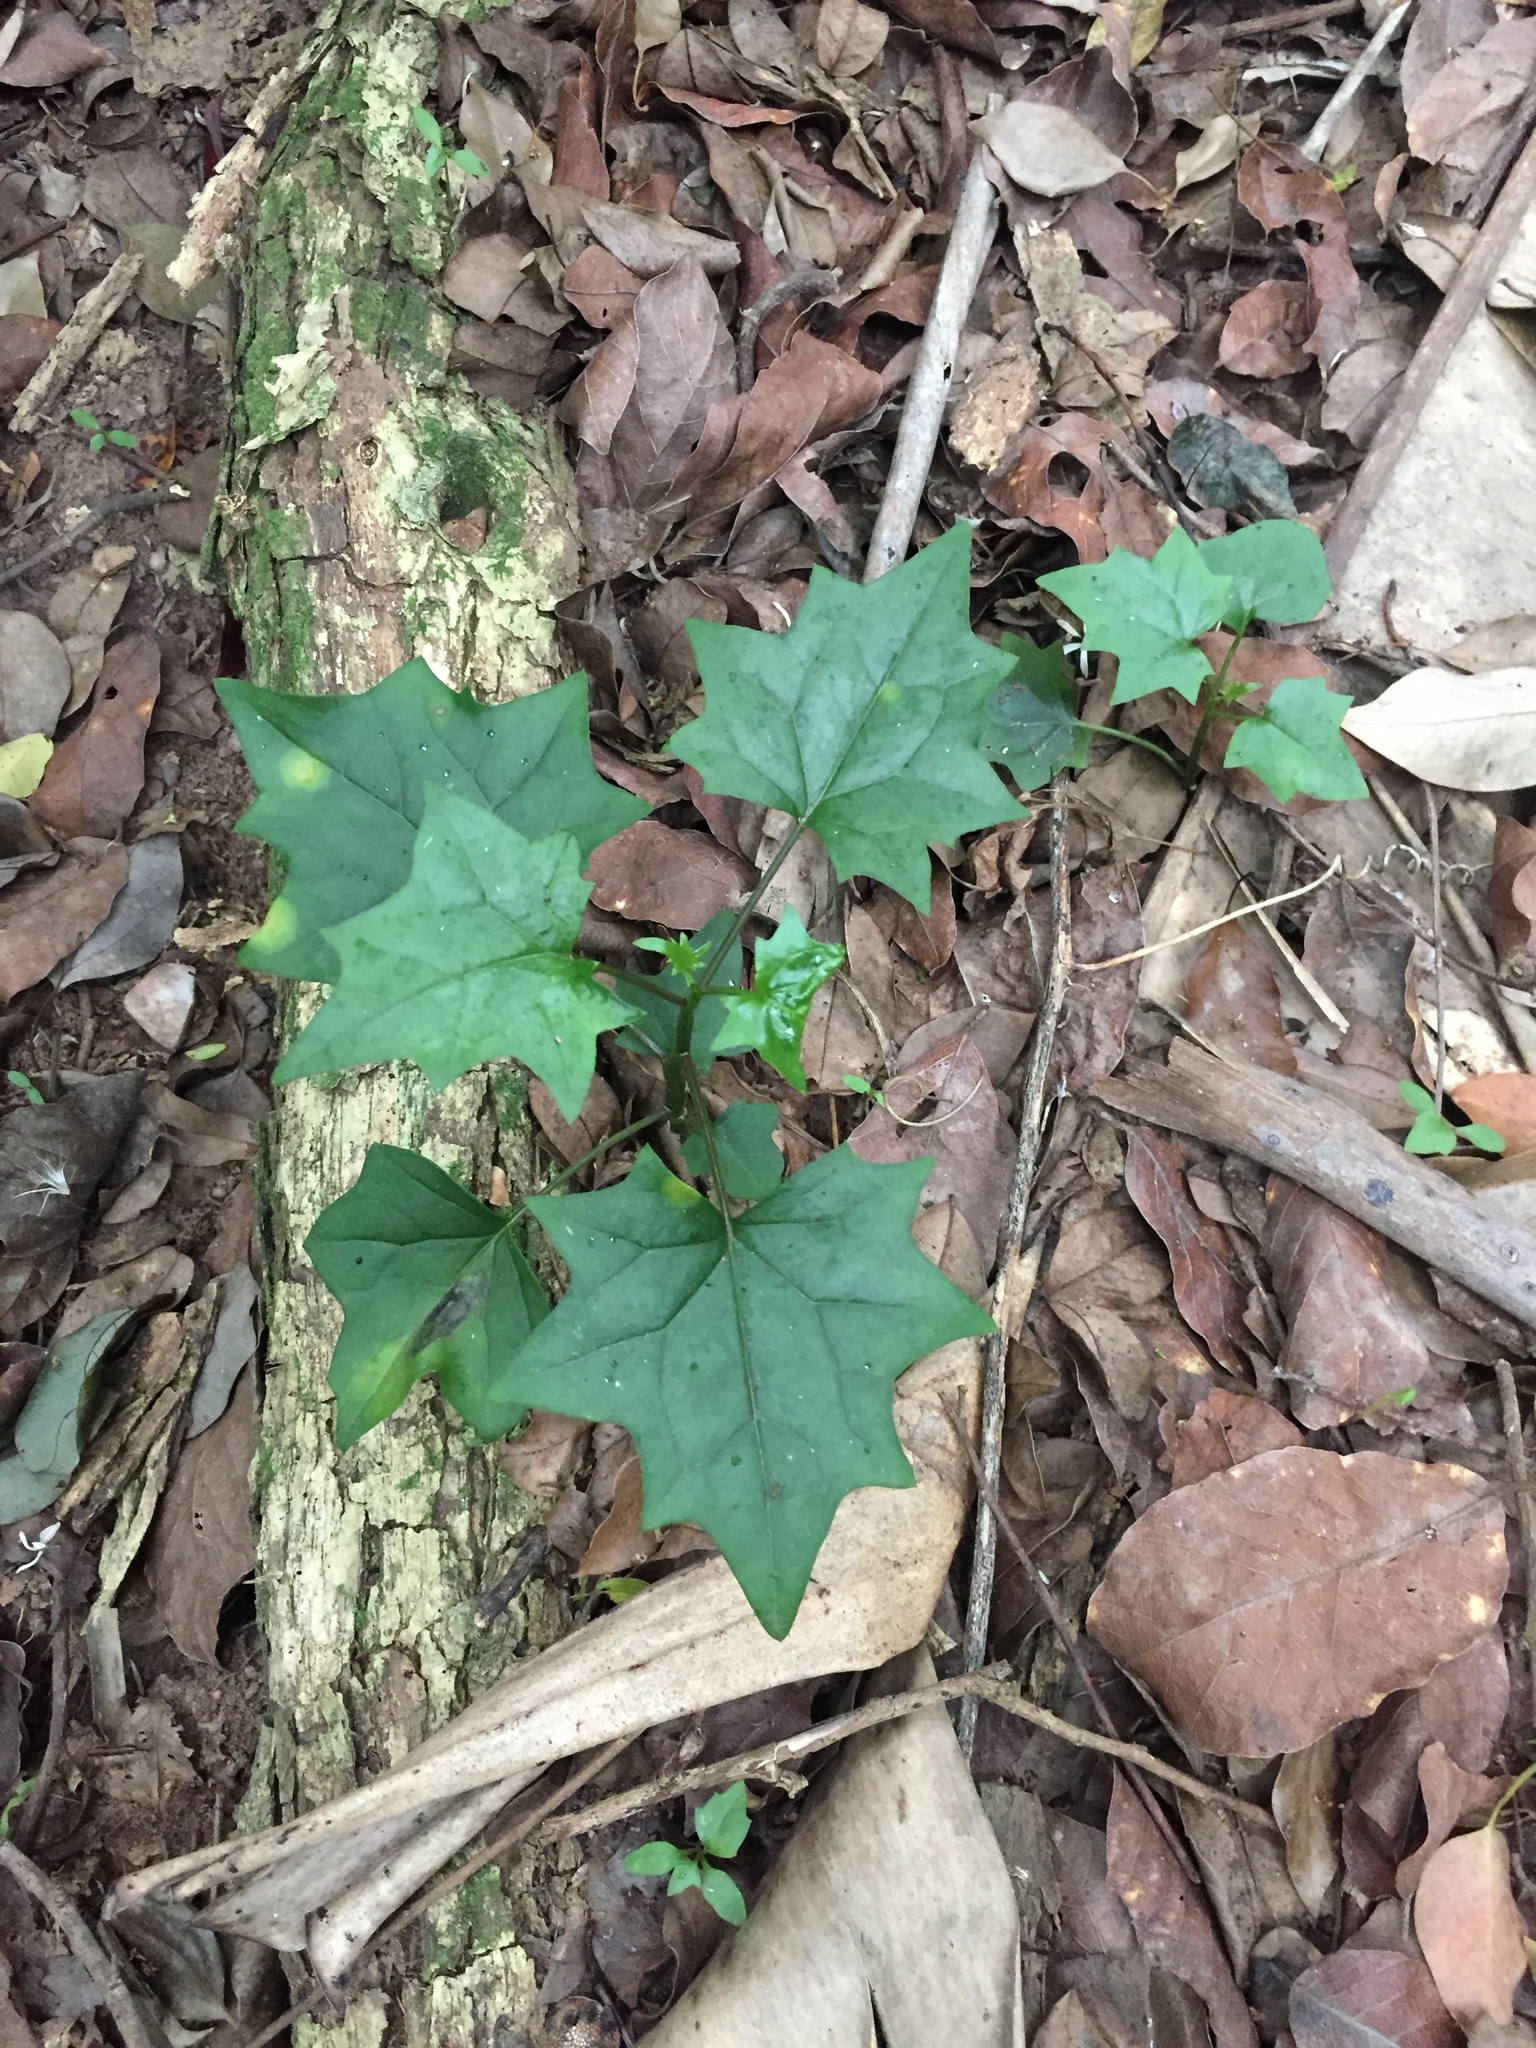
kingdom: Plantae
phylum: Tracheophyta
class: Magnoliopsida
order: Asterales
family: Asteraceae
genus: Senecio
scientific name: Senecio tamoides
